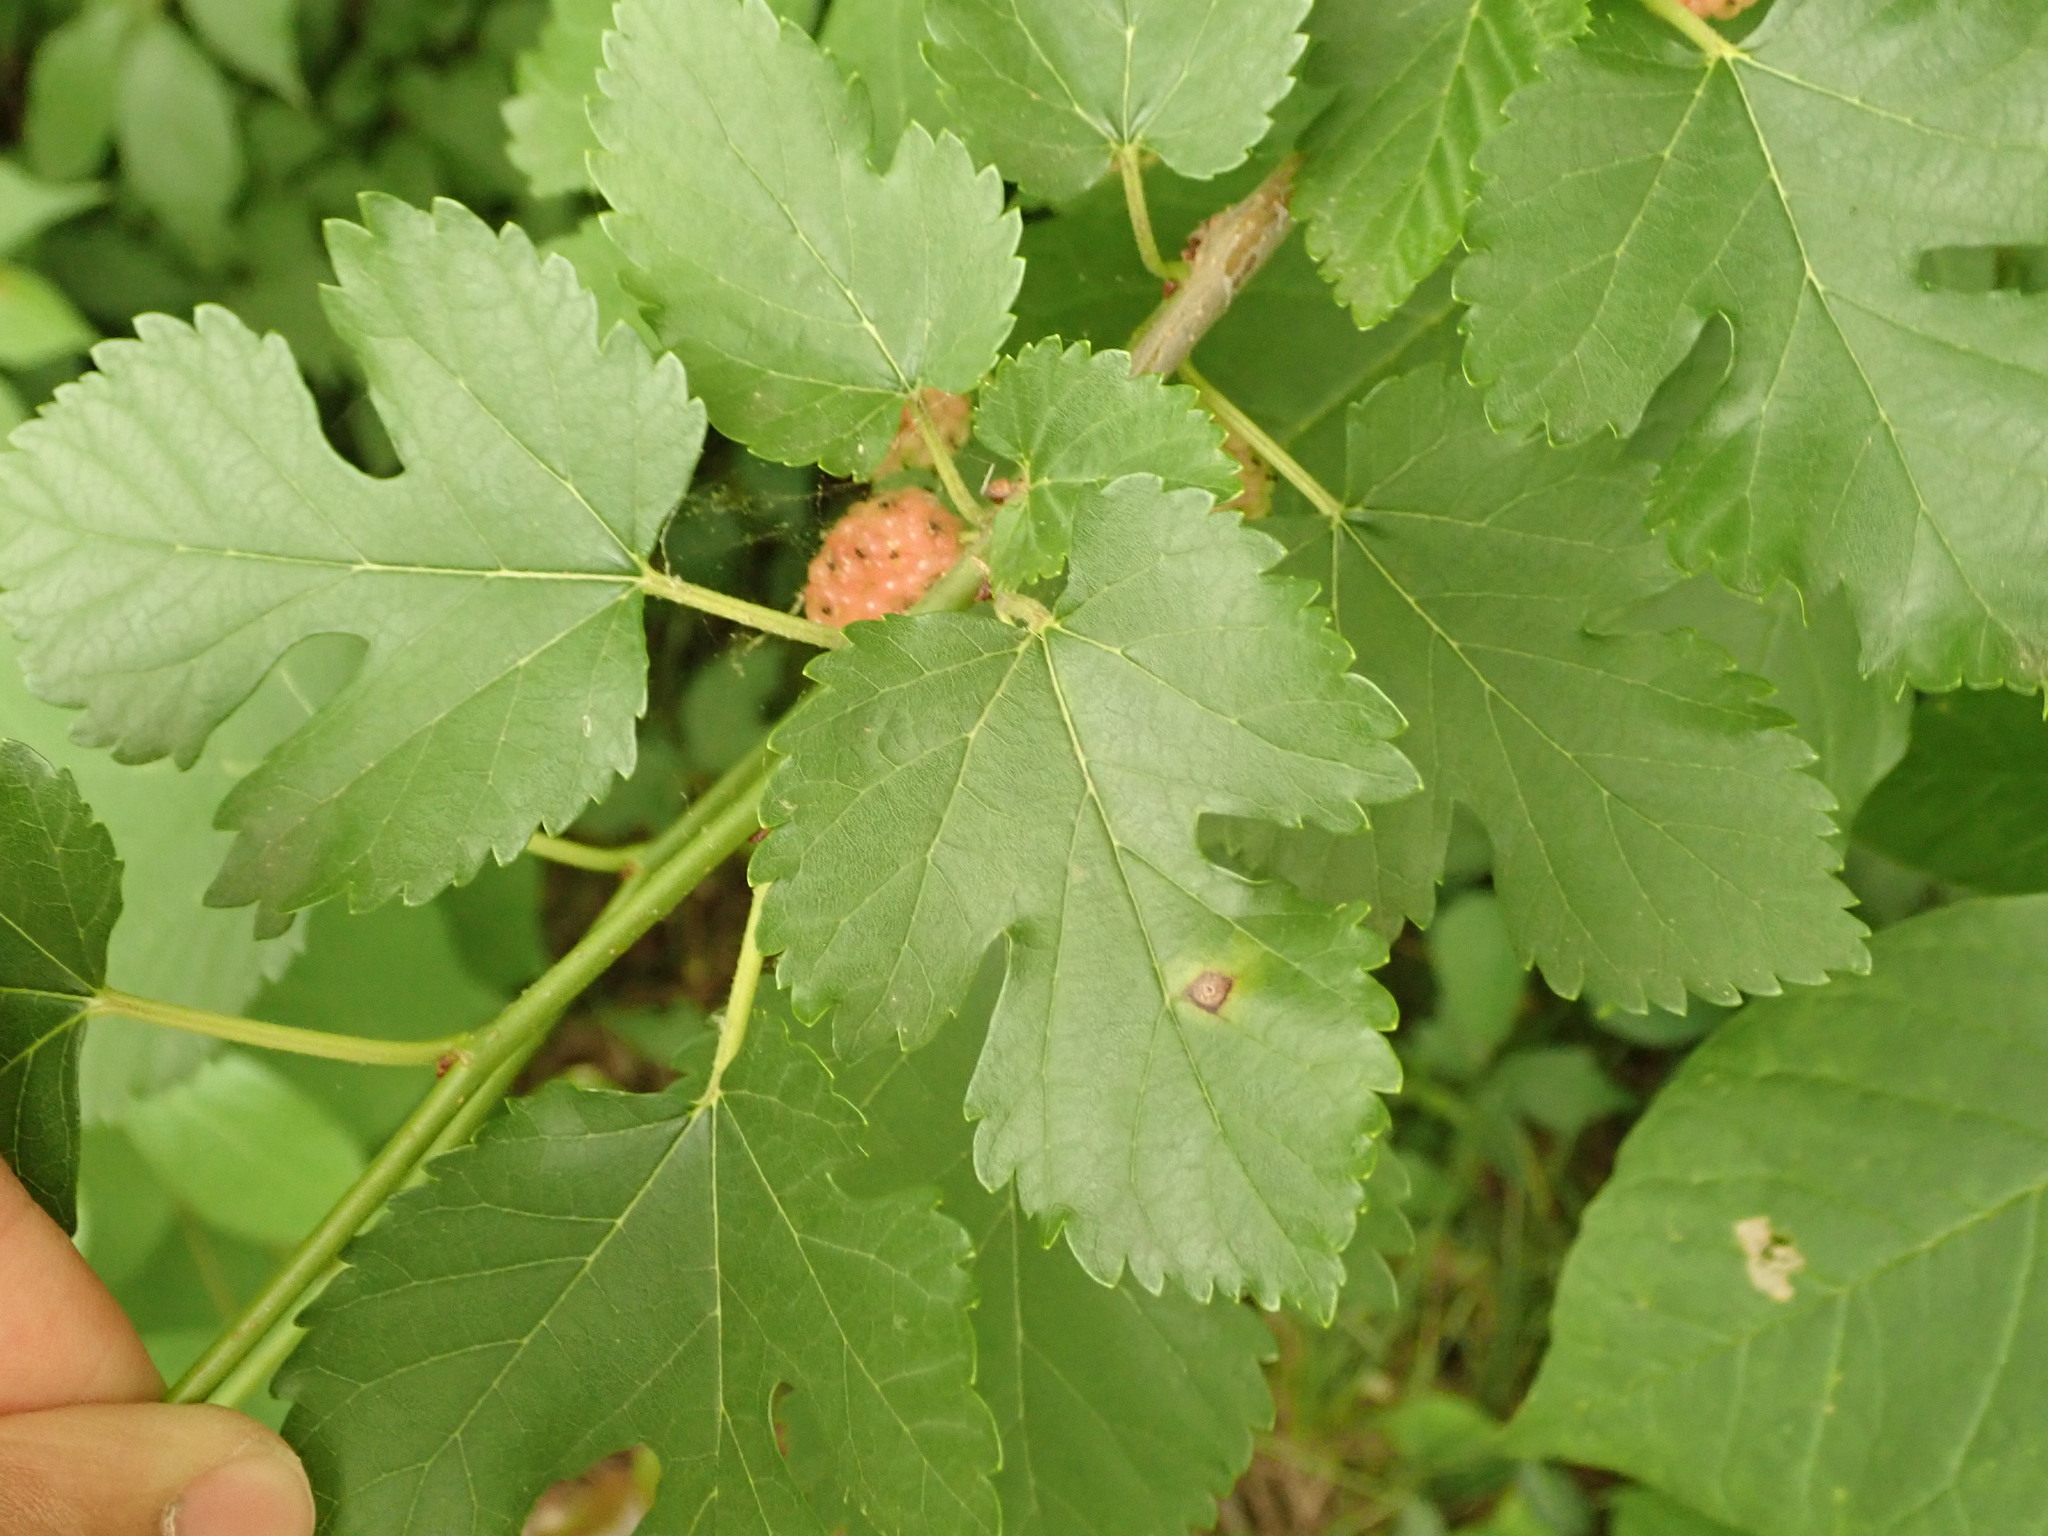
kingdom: Plantae
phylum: Tracheophyta
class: Magnoliopsida
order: Rosales
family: Moraceae
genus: Morus
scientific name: Morus alba
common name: White mulberry
